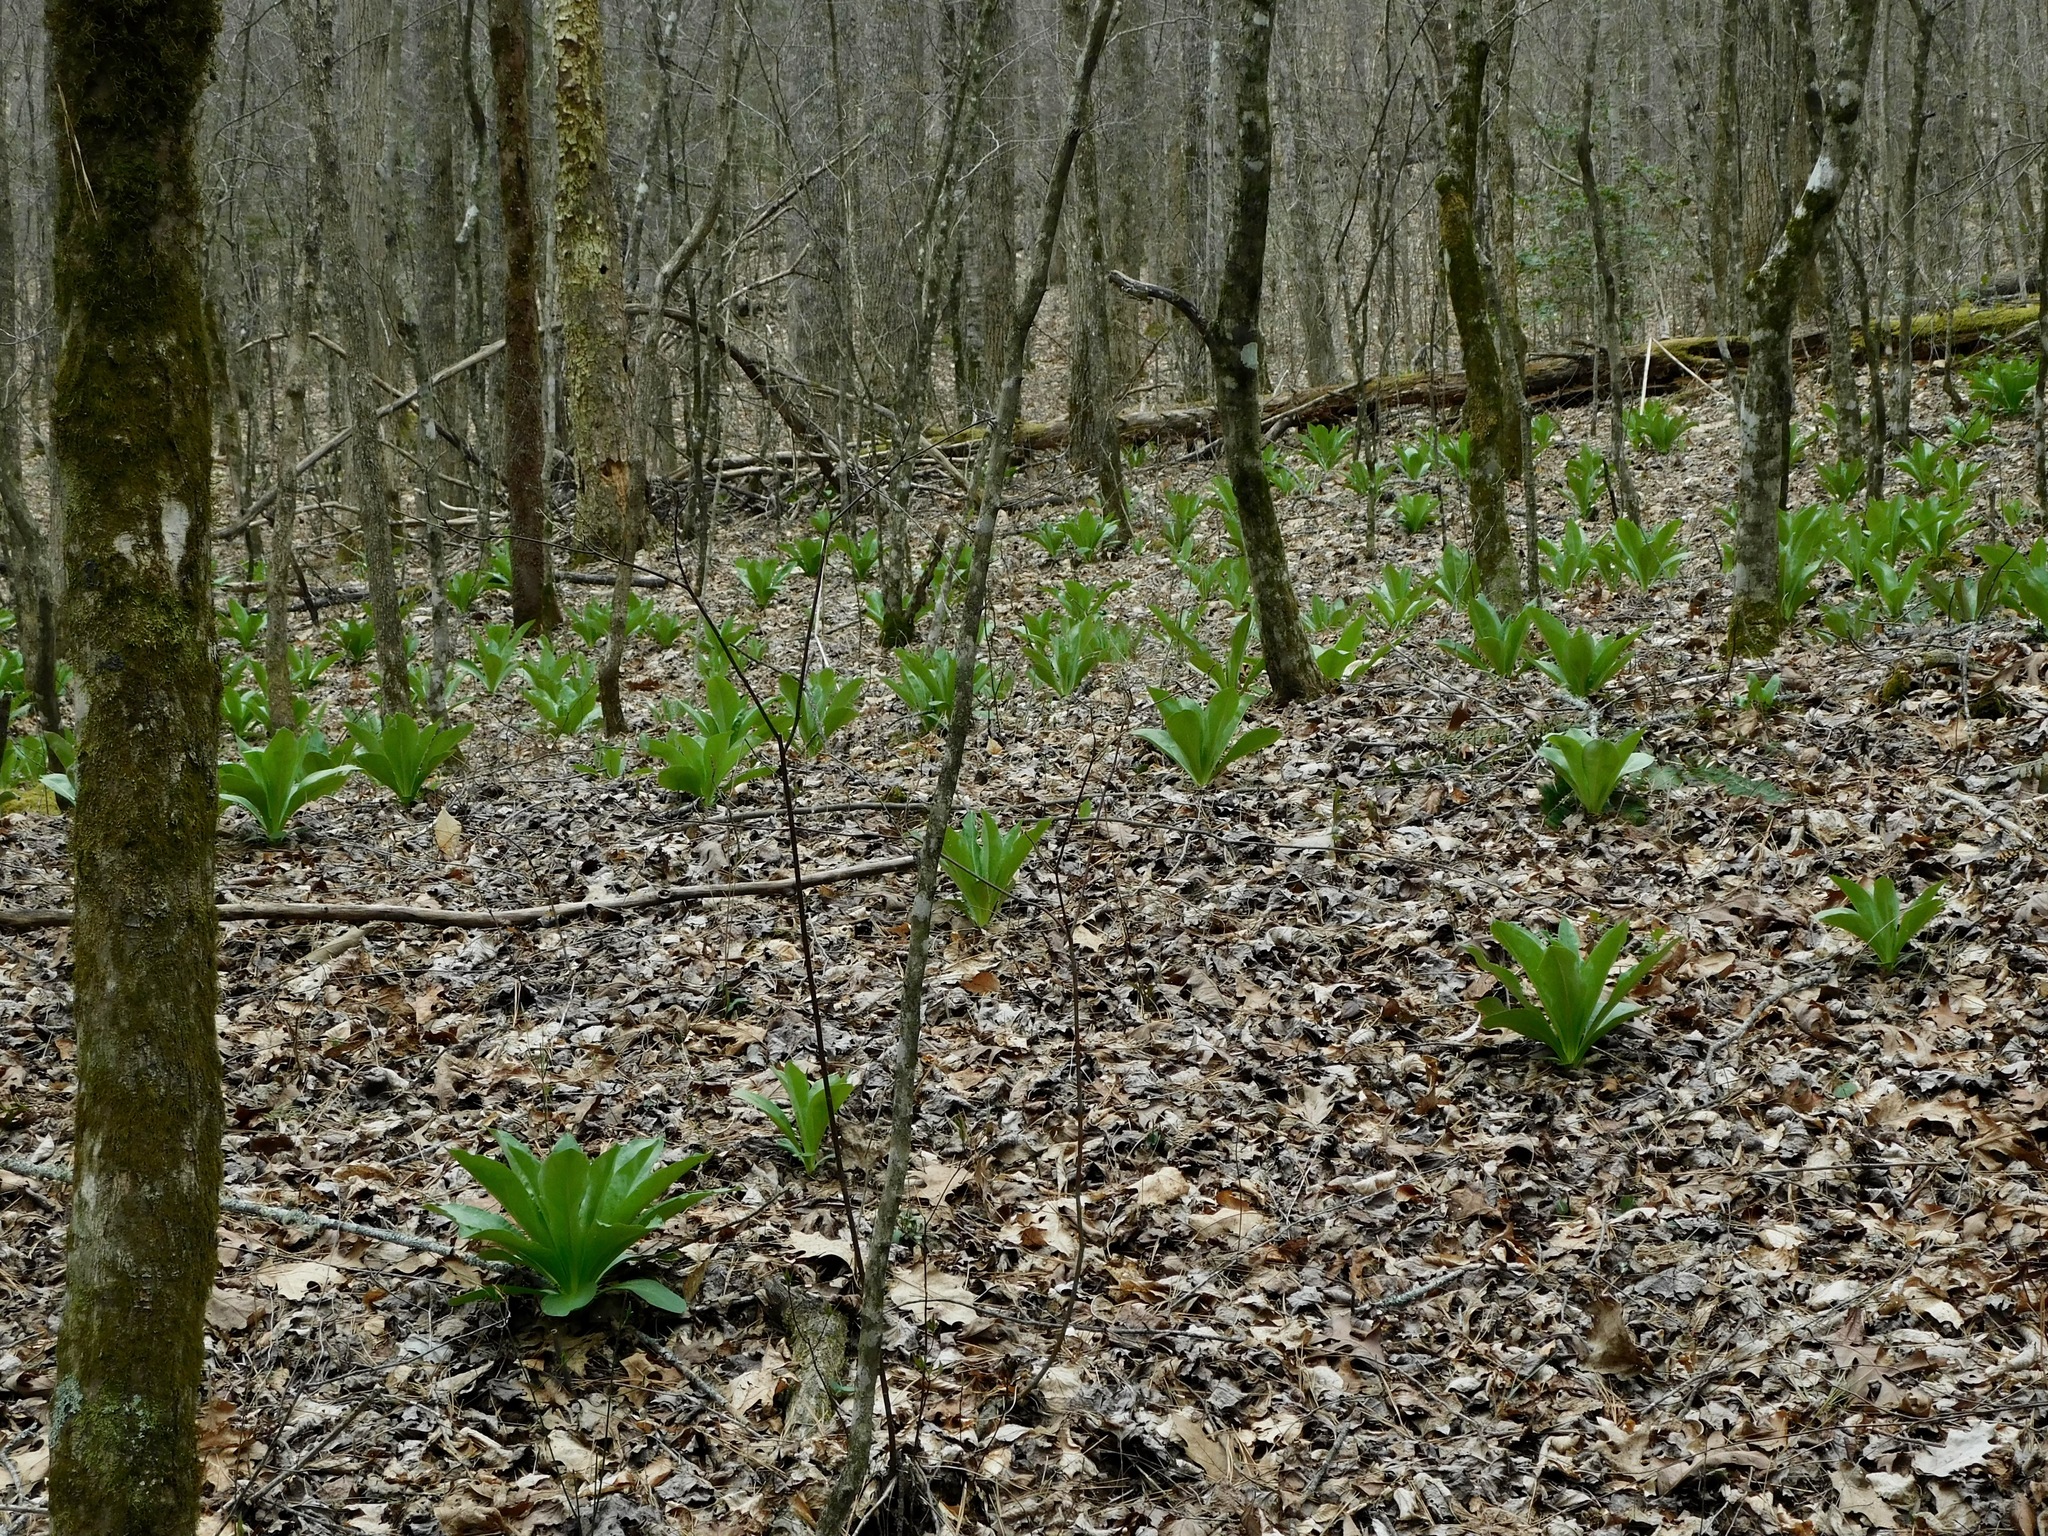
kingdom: Plantae
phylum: Tracheophyta
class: Magnoliopsida
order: Gentianales
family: Gentianaceae
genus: Frasera
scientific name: Frasera caroliniensis
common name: American columbo
